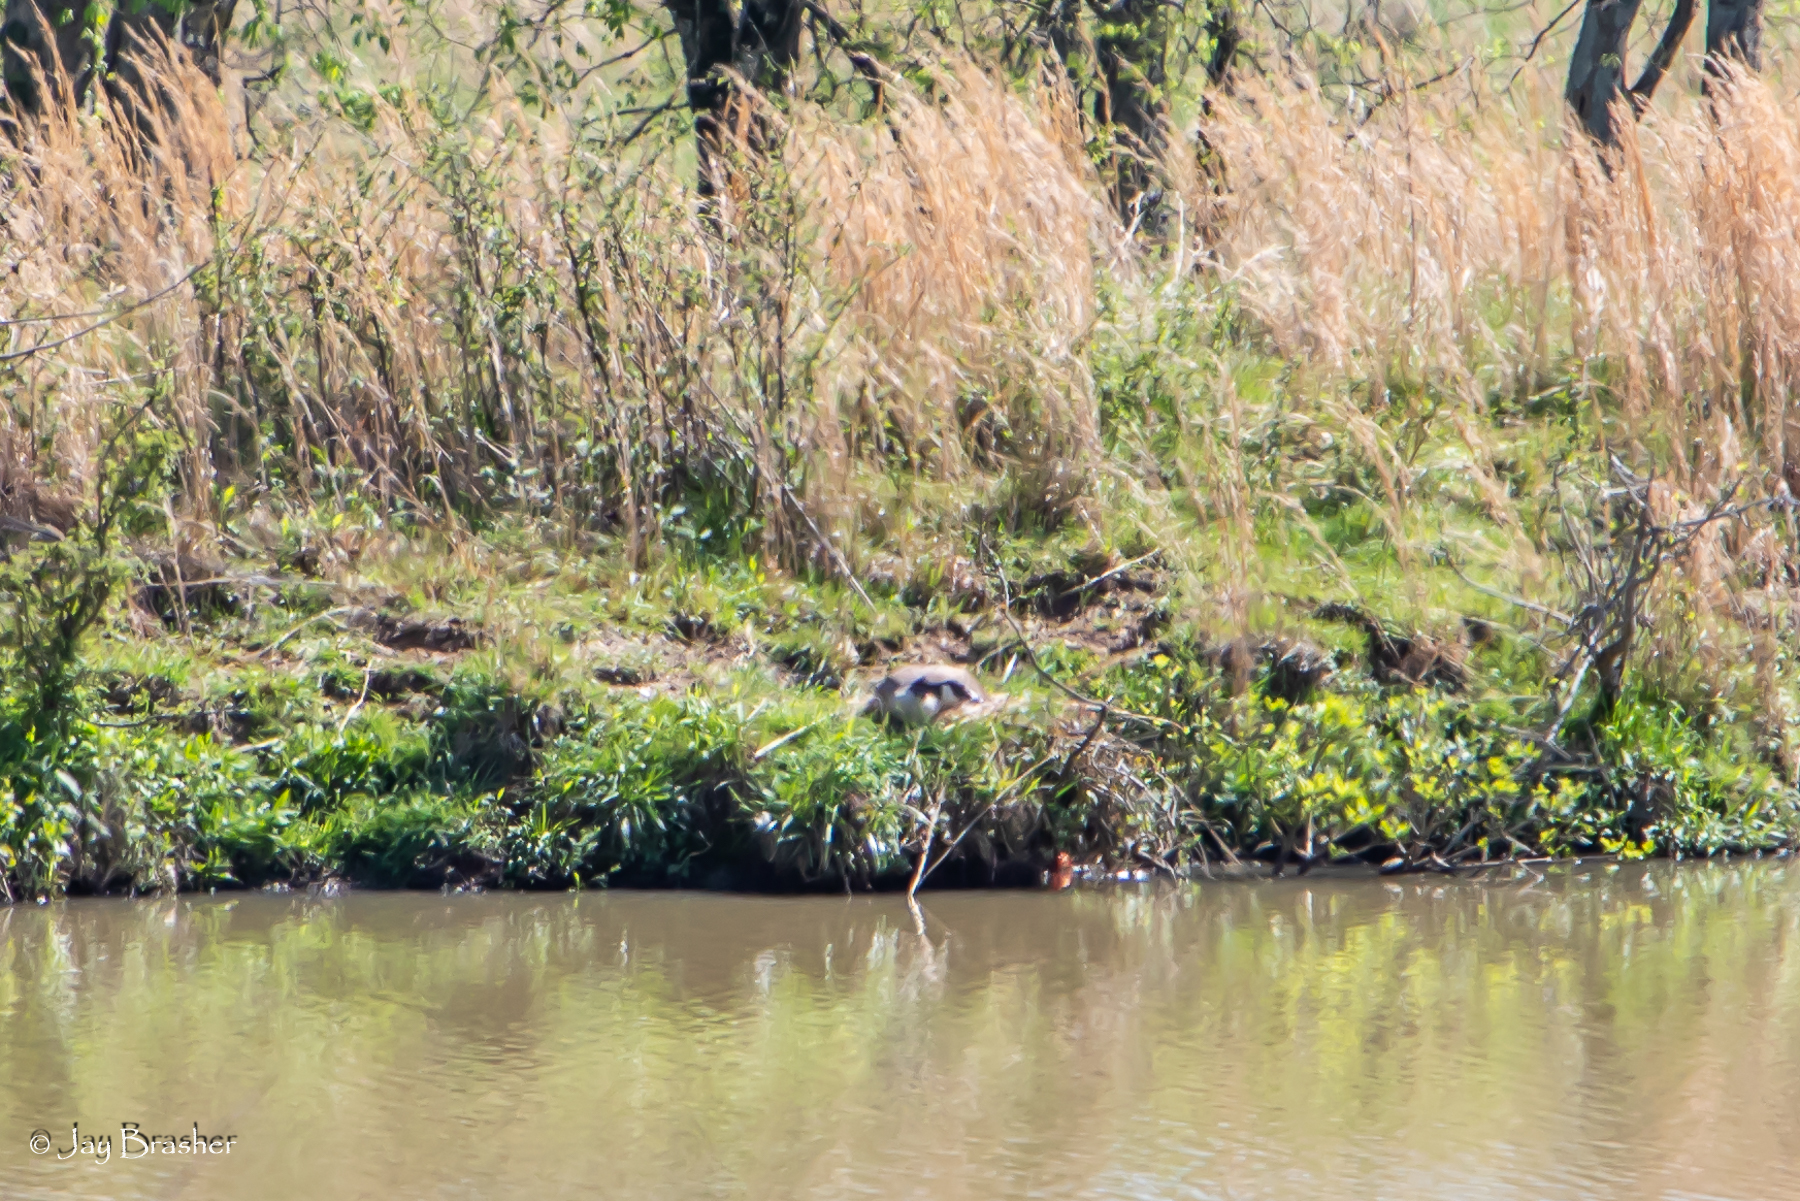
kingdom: Animalia
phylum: Chordata
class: Aves
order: Anseriformes
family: Anatidae
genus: Branta
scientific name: Branta canadensis
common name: Canada goose
